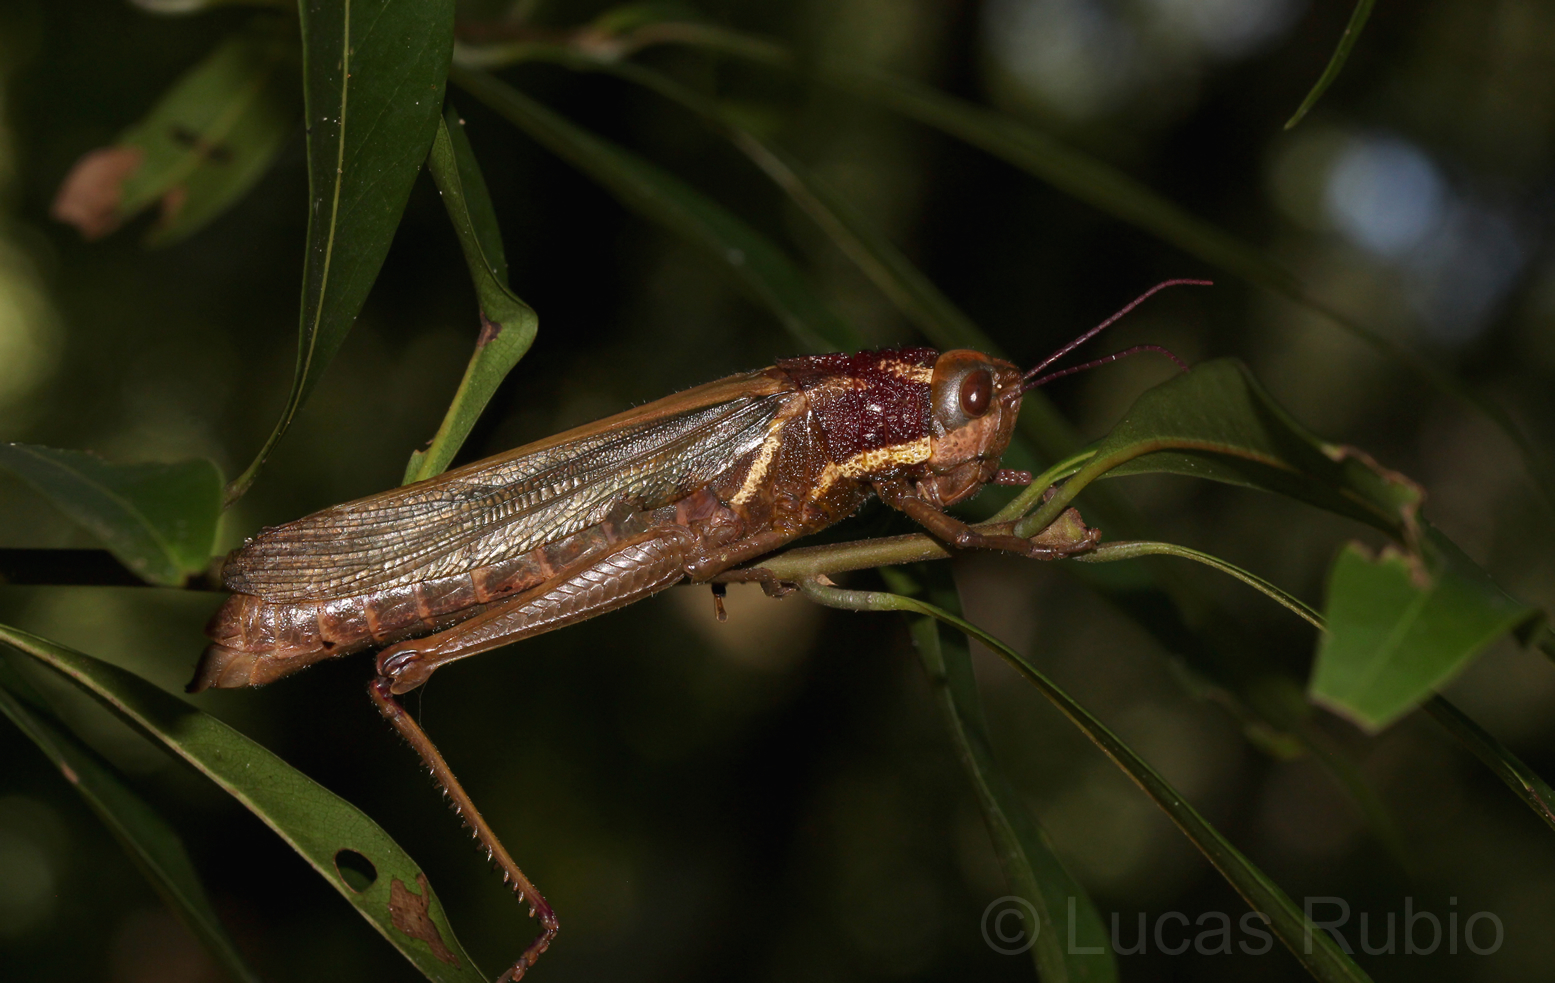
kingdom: Animalia
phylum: Arthropoda
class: Insecta
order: Orthoptera
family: Acrididae
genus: Zygoclistron
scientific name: Zygoclistron superbum
